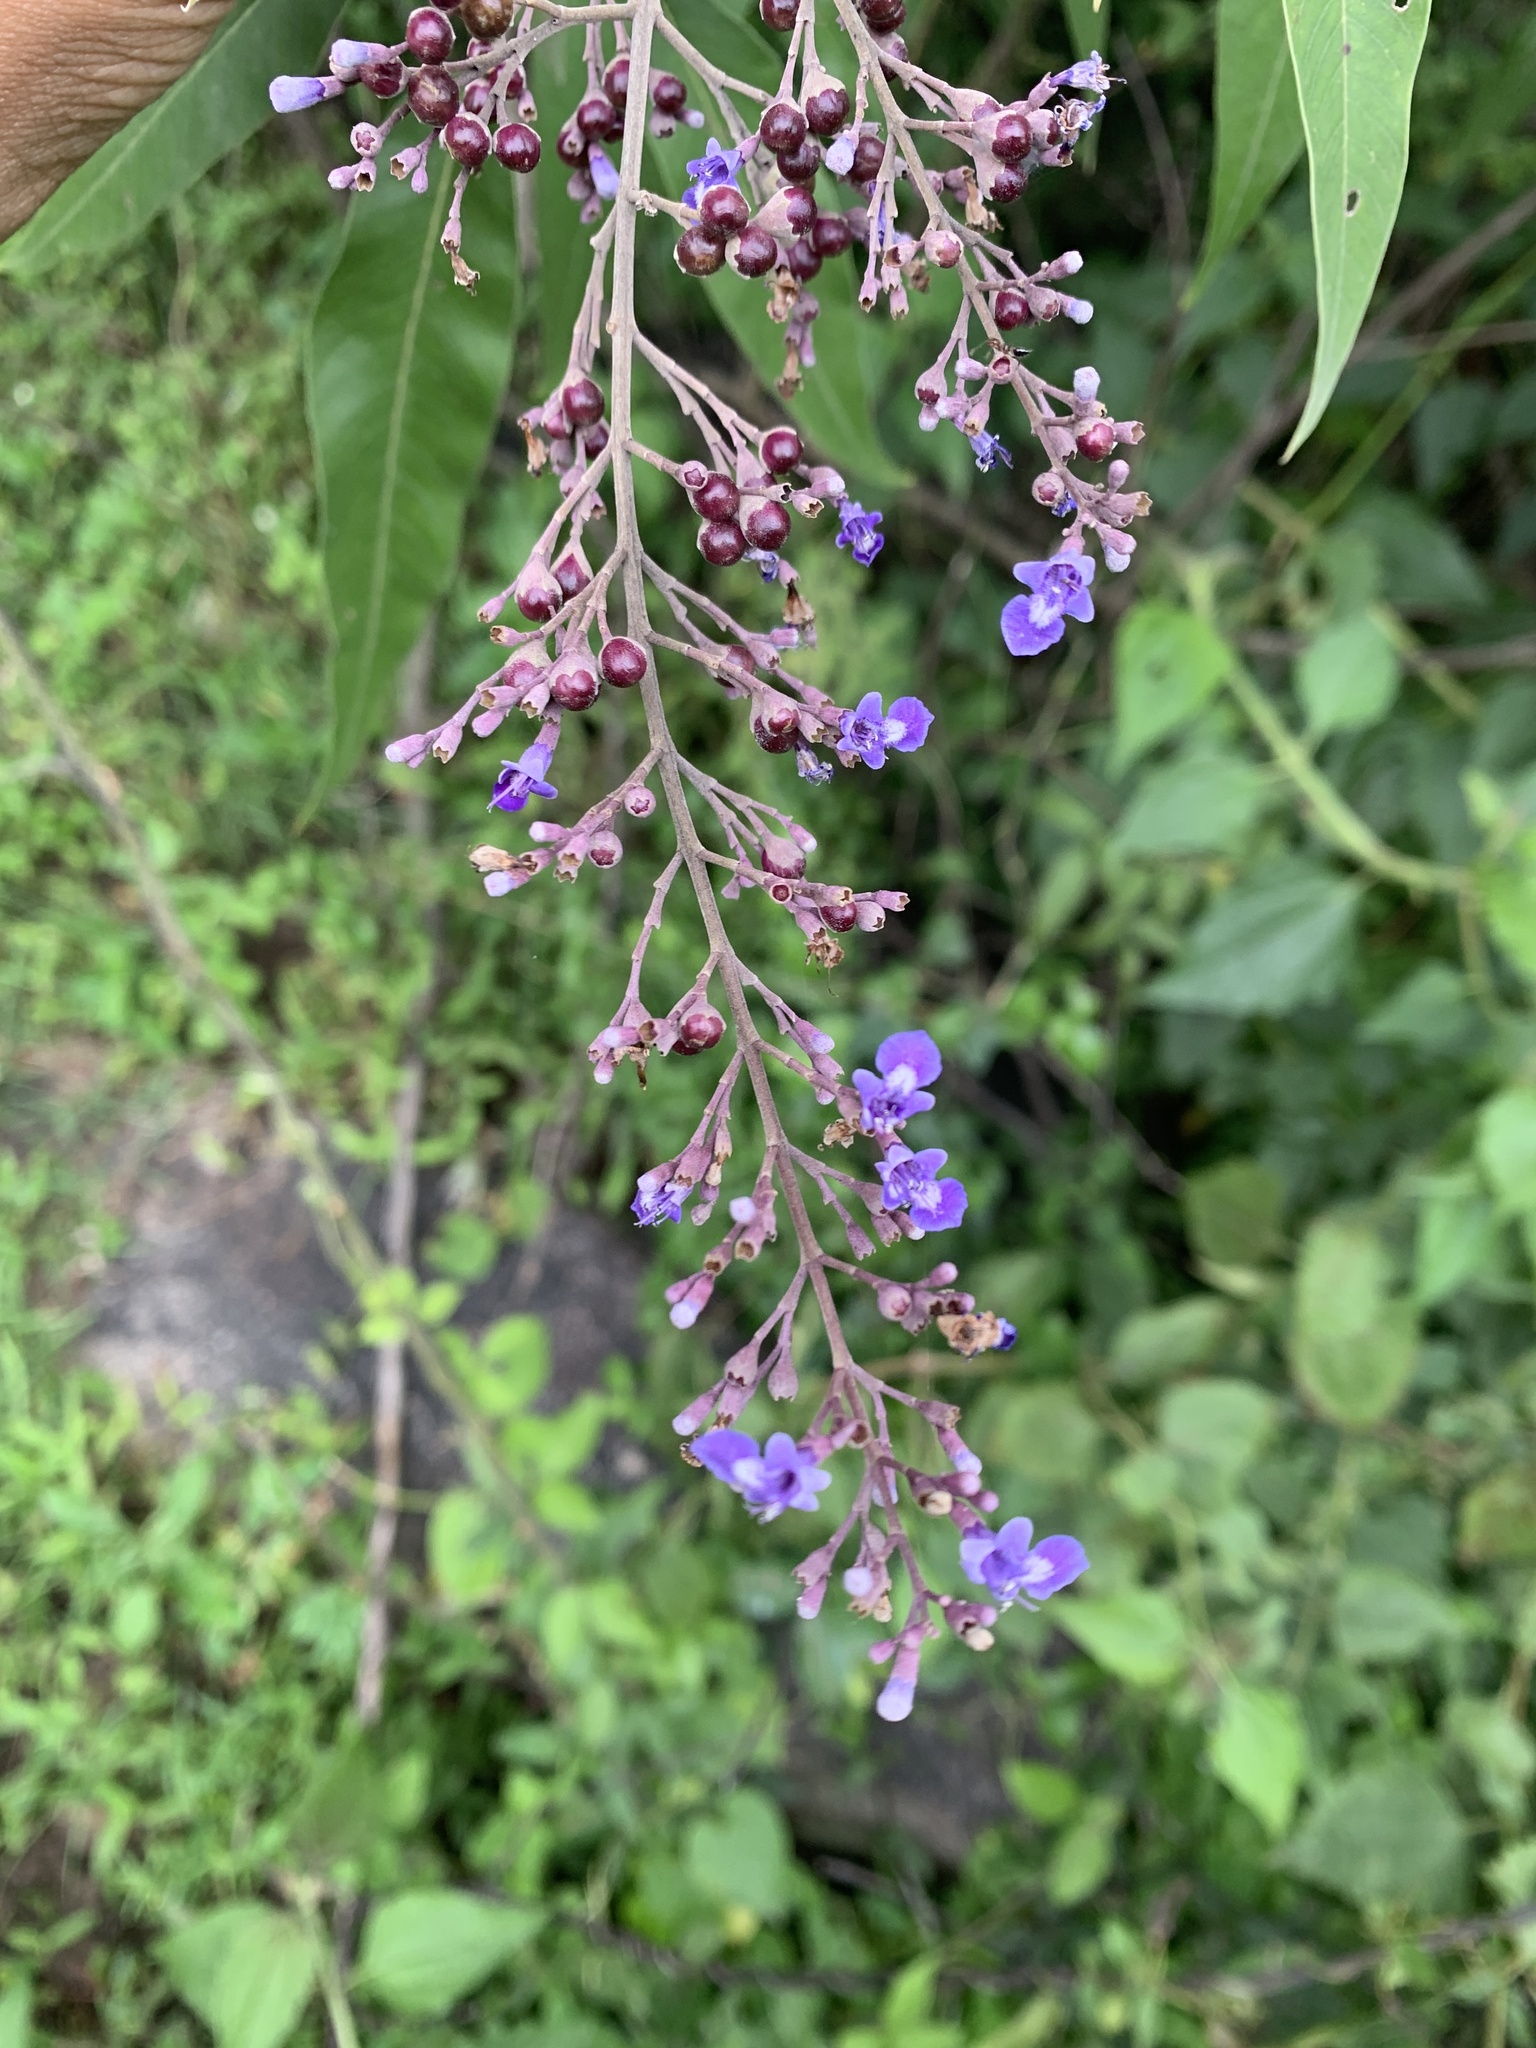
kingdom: Plantae
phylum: Tracheophyta
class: Magnoliopsida
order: Lamiales
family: Lamiaceae
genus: Vitex
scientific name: Vitex negundo
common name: Chinese chastetree
